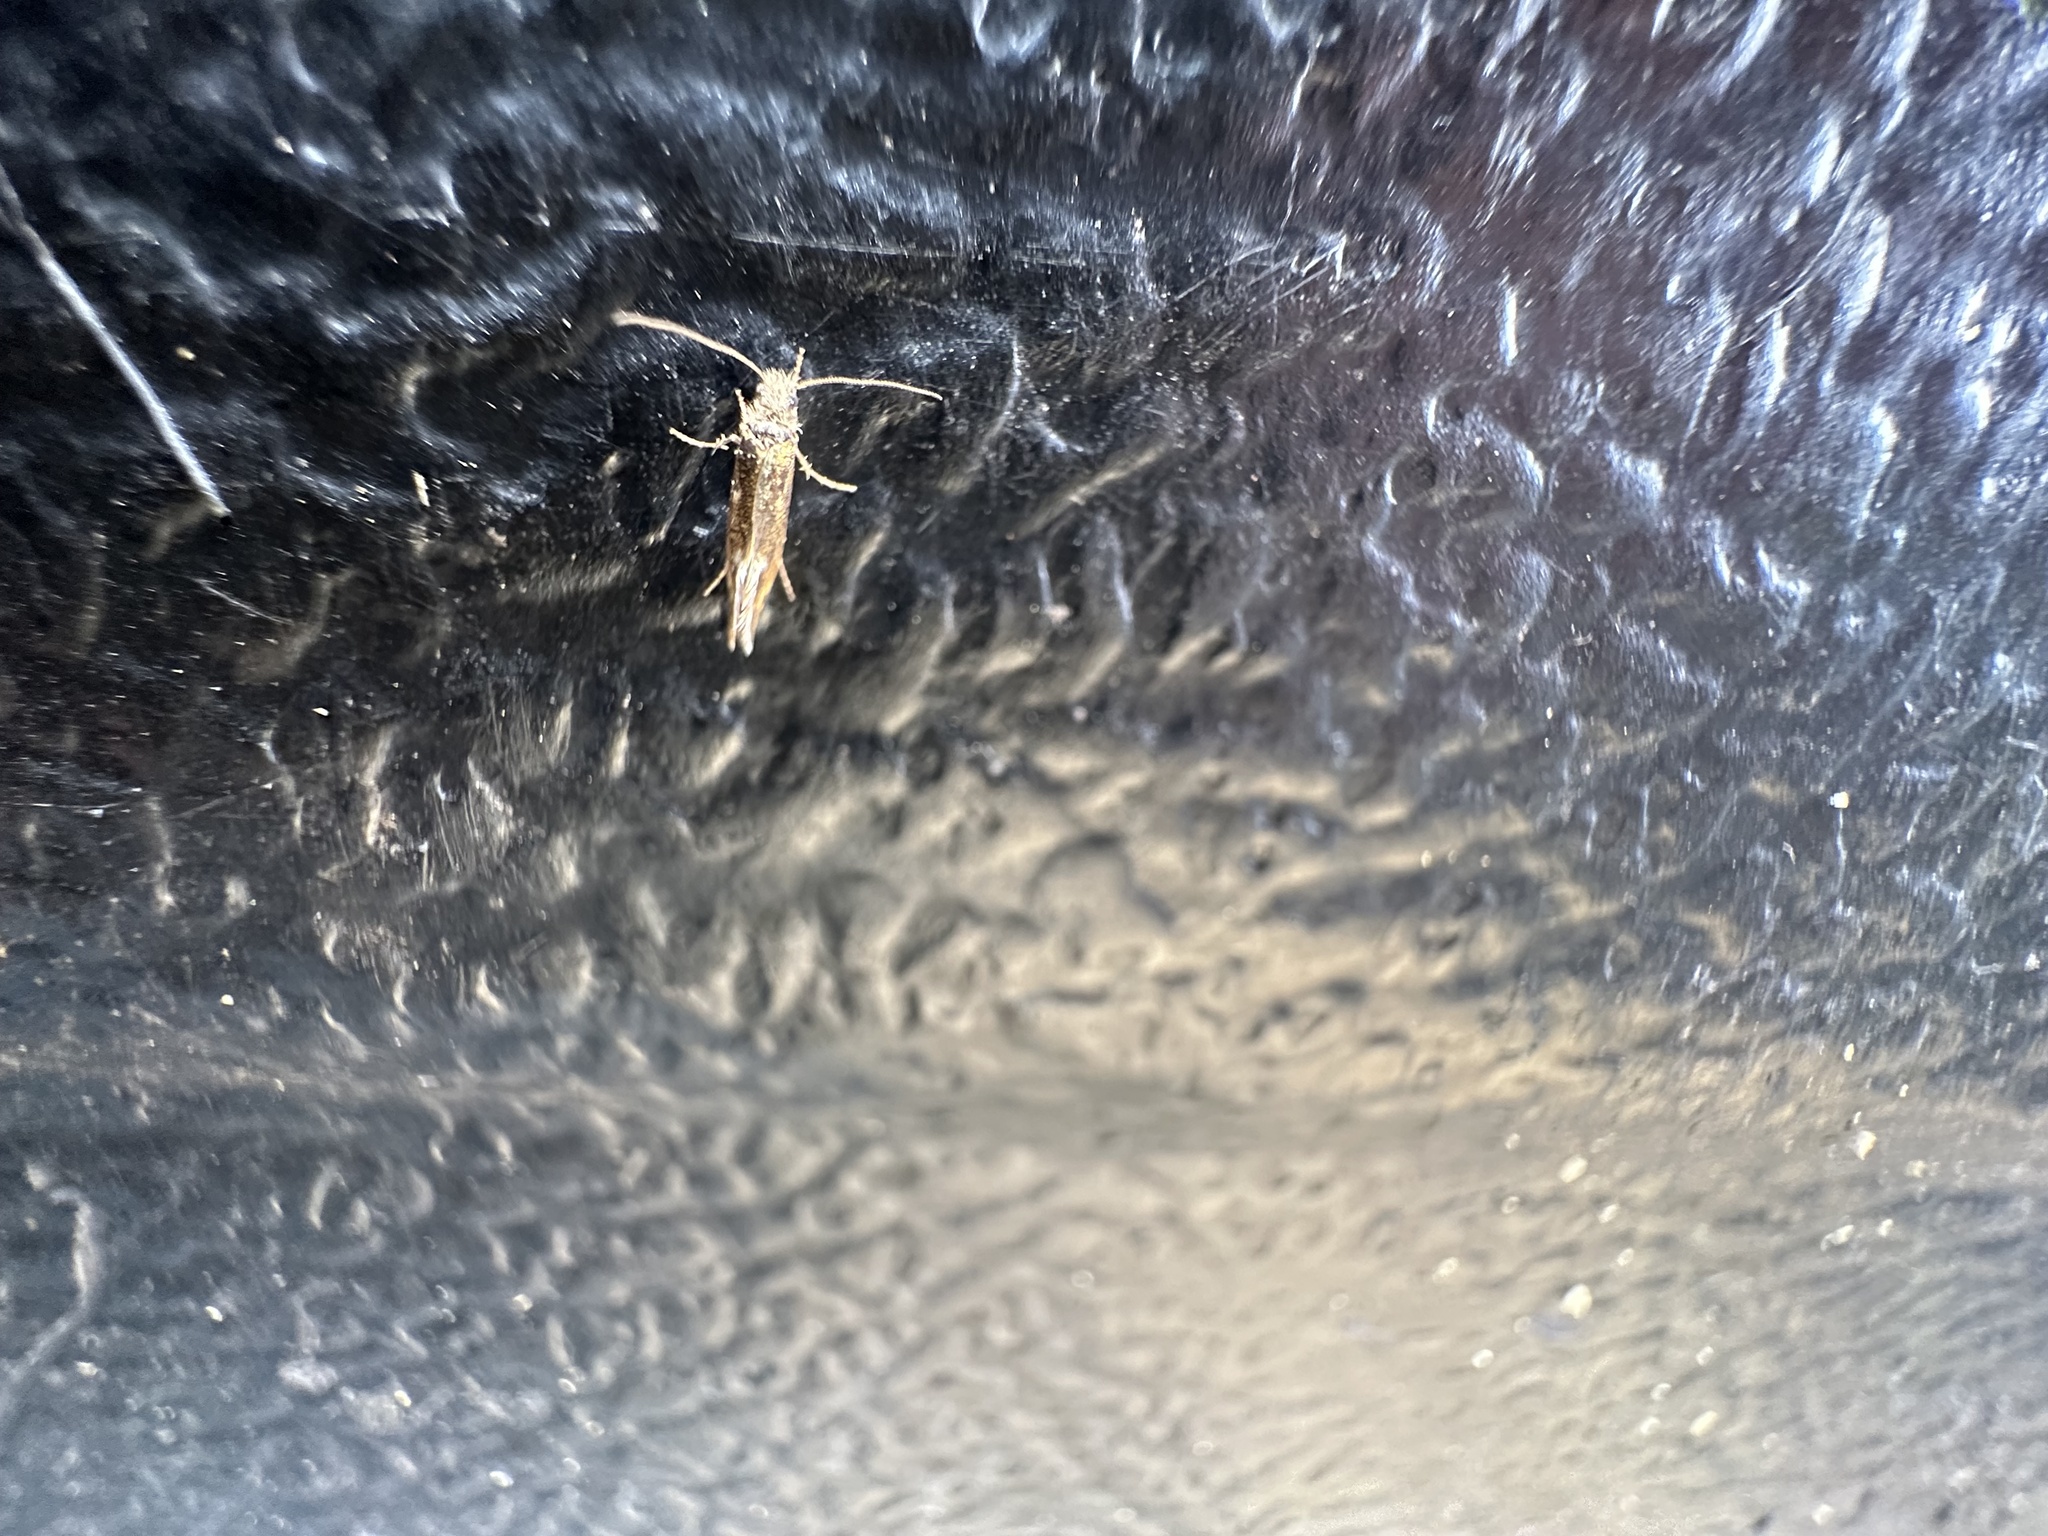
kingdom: Animalia
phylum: Arthropoda
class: Insecta
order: Lepidoptera
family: Eriocraniidae
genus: Dyseriocrania
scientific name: Dyseriocrania subpurpurella
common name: Common oak purple
